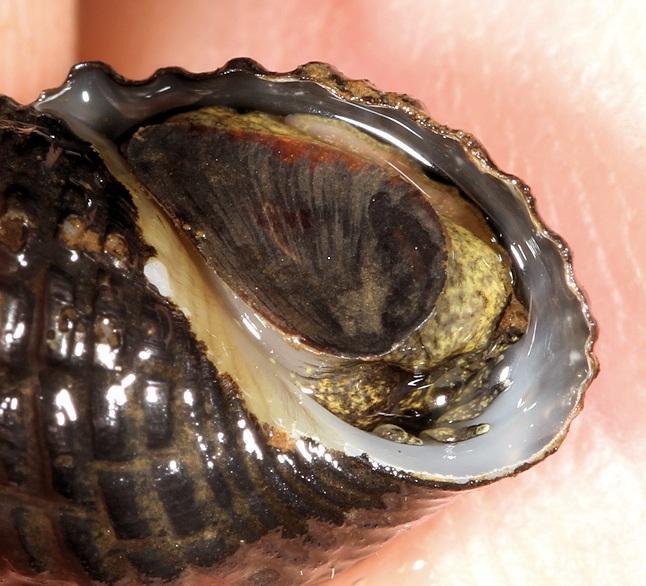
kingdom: Animalia
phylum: Mollusca
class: Gastropoda
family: Thiaridae
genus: Tarebia
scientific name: Tarebia granifera
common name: Quilted melania
